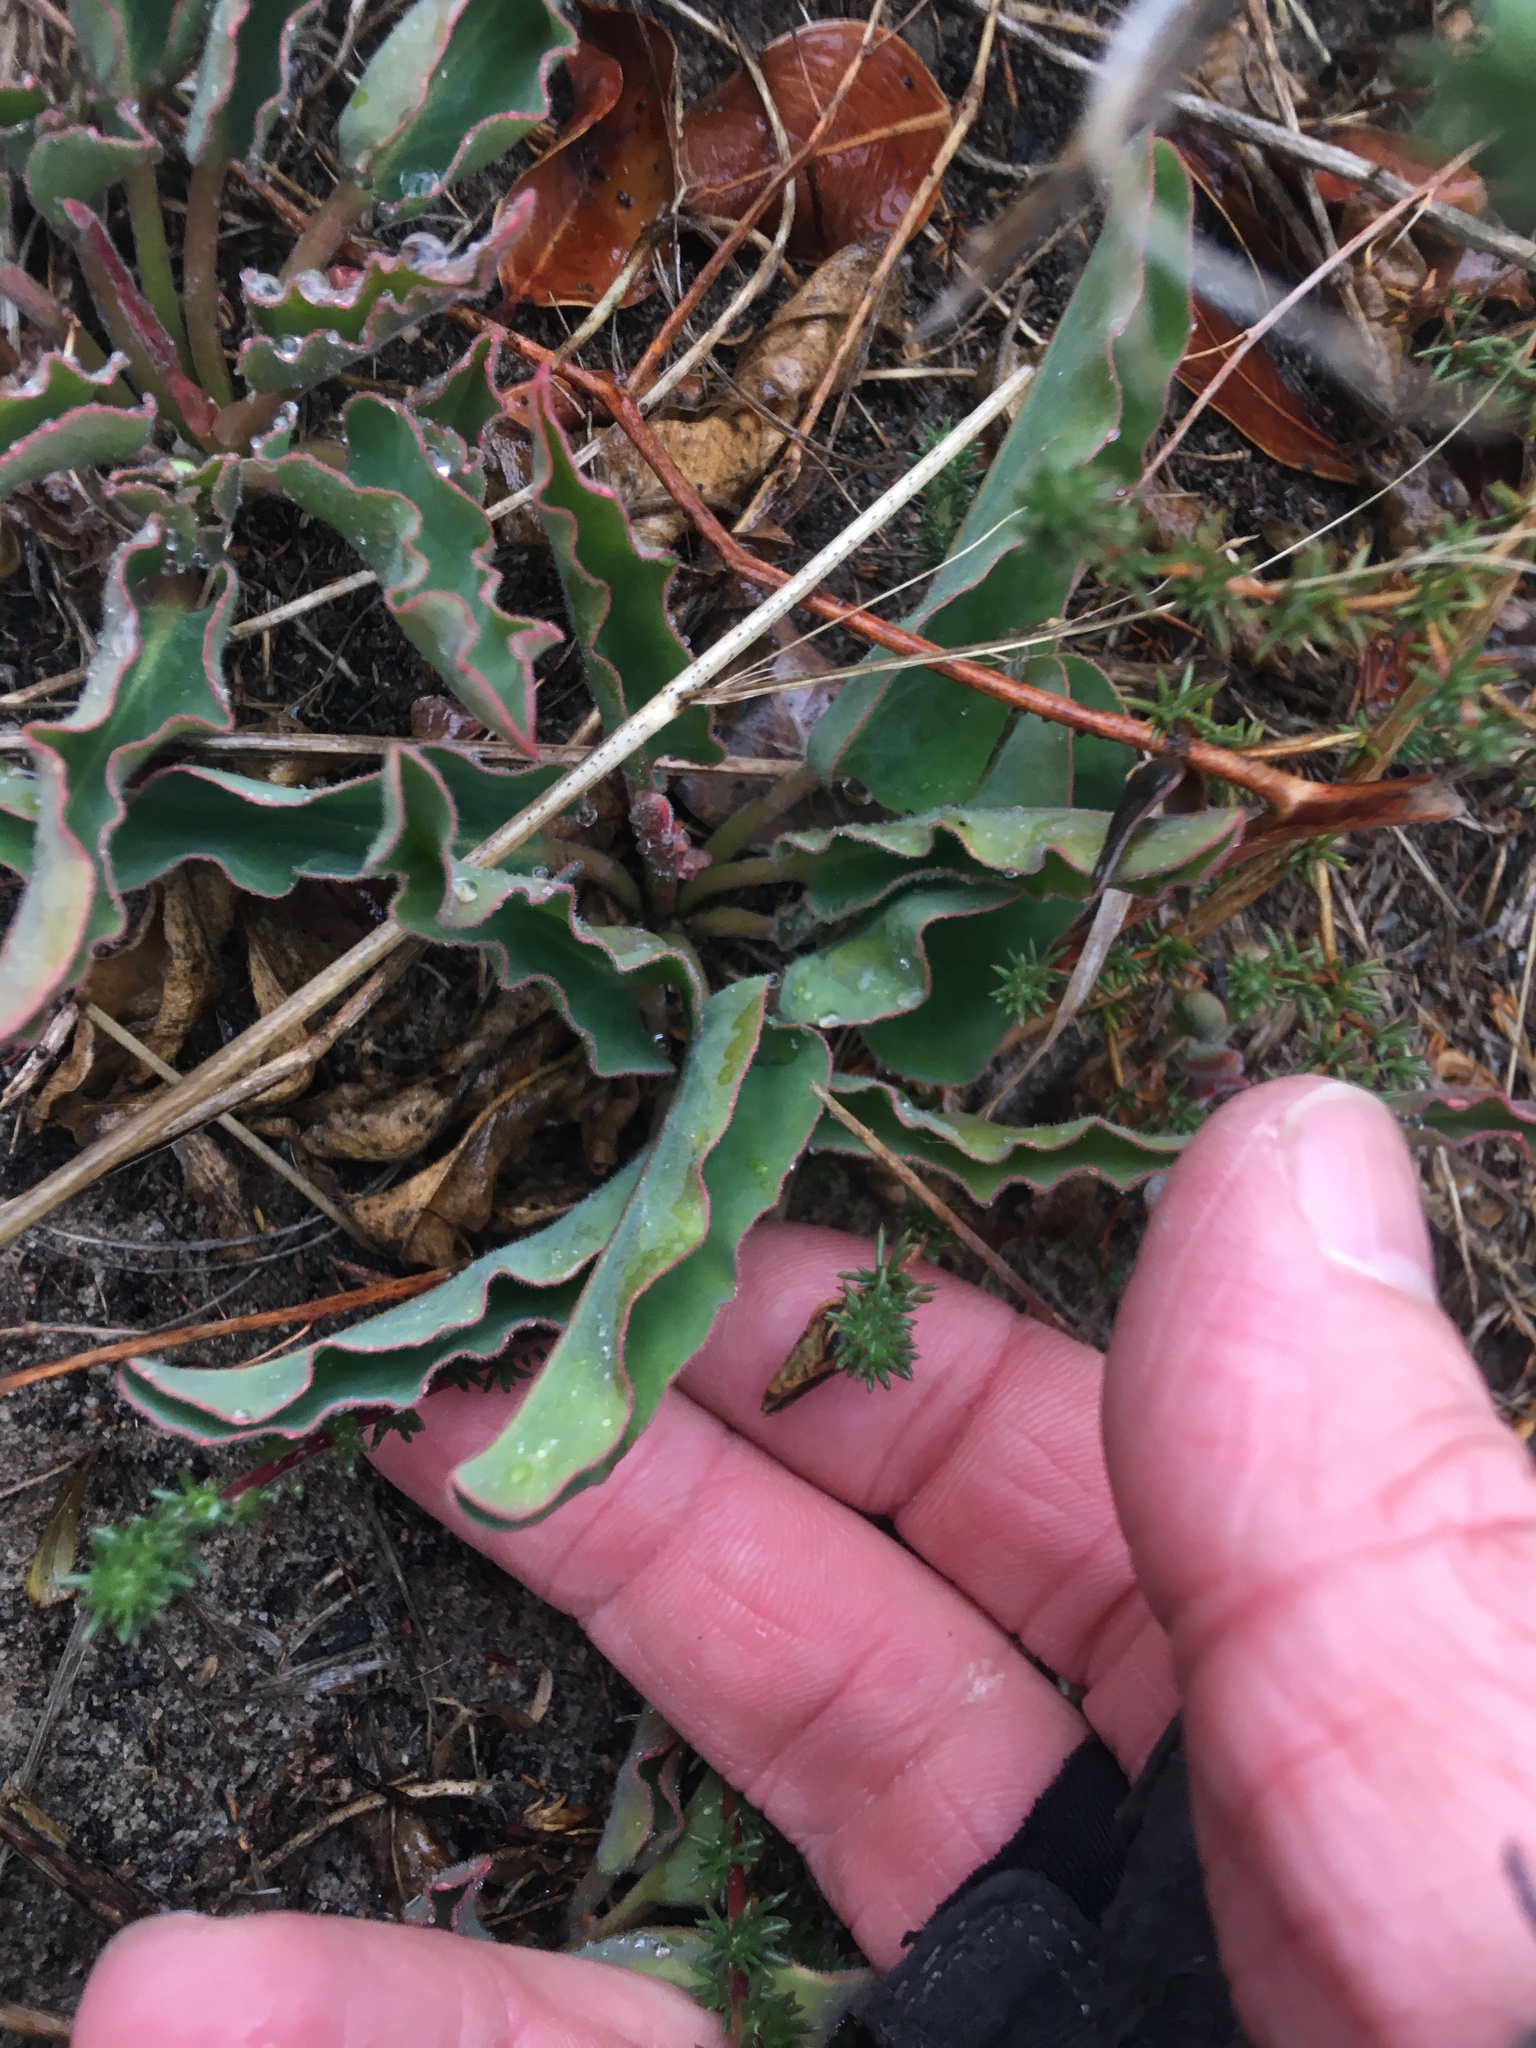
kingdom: Plantae
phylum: Tracheophyta
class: Magnoliopsida
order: Malpighiales
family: Euphorbiaceae
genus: Euphorbia
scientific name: Euphorbia tuberosa
